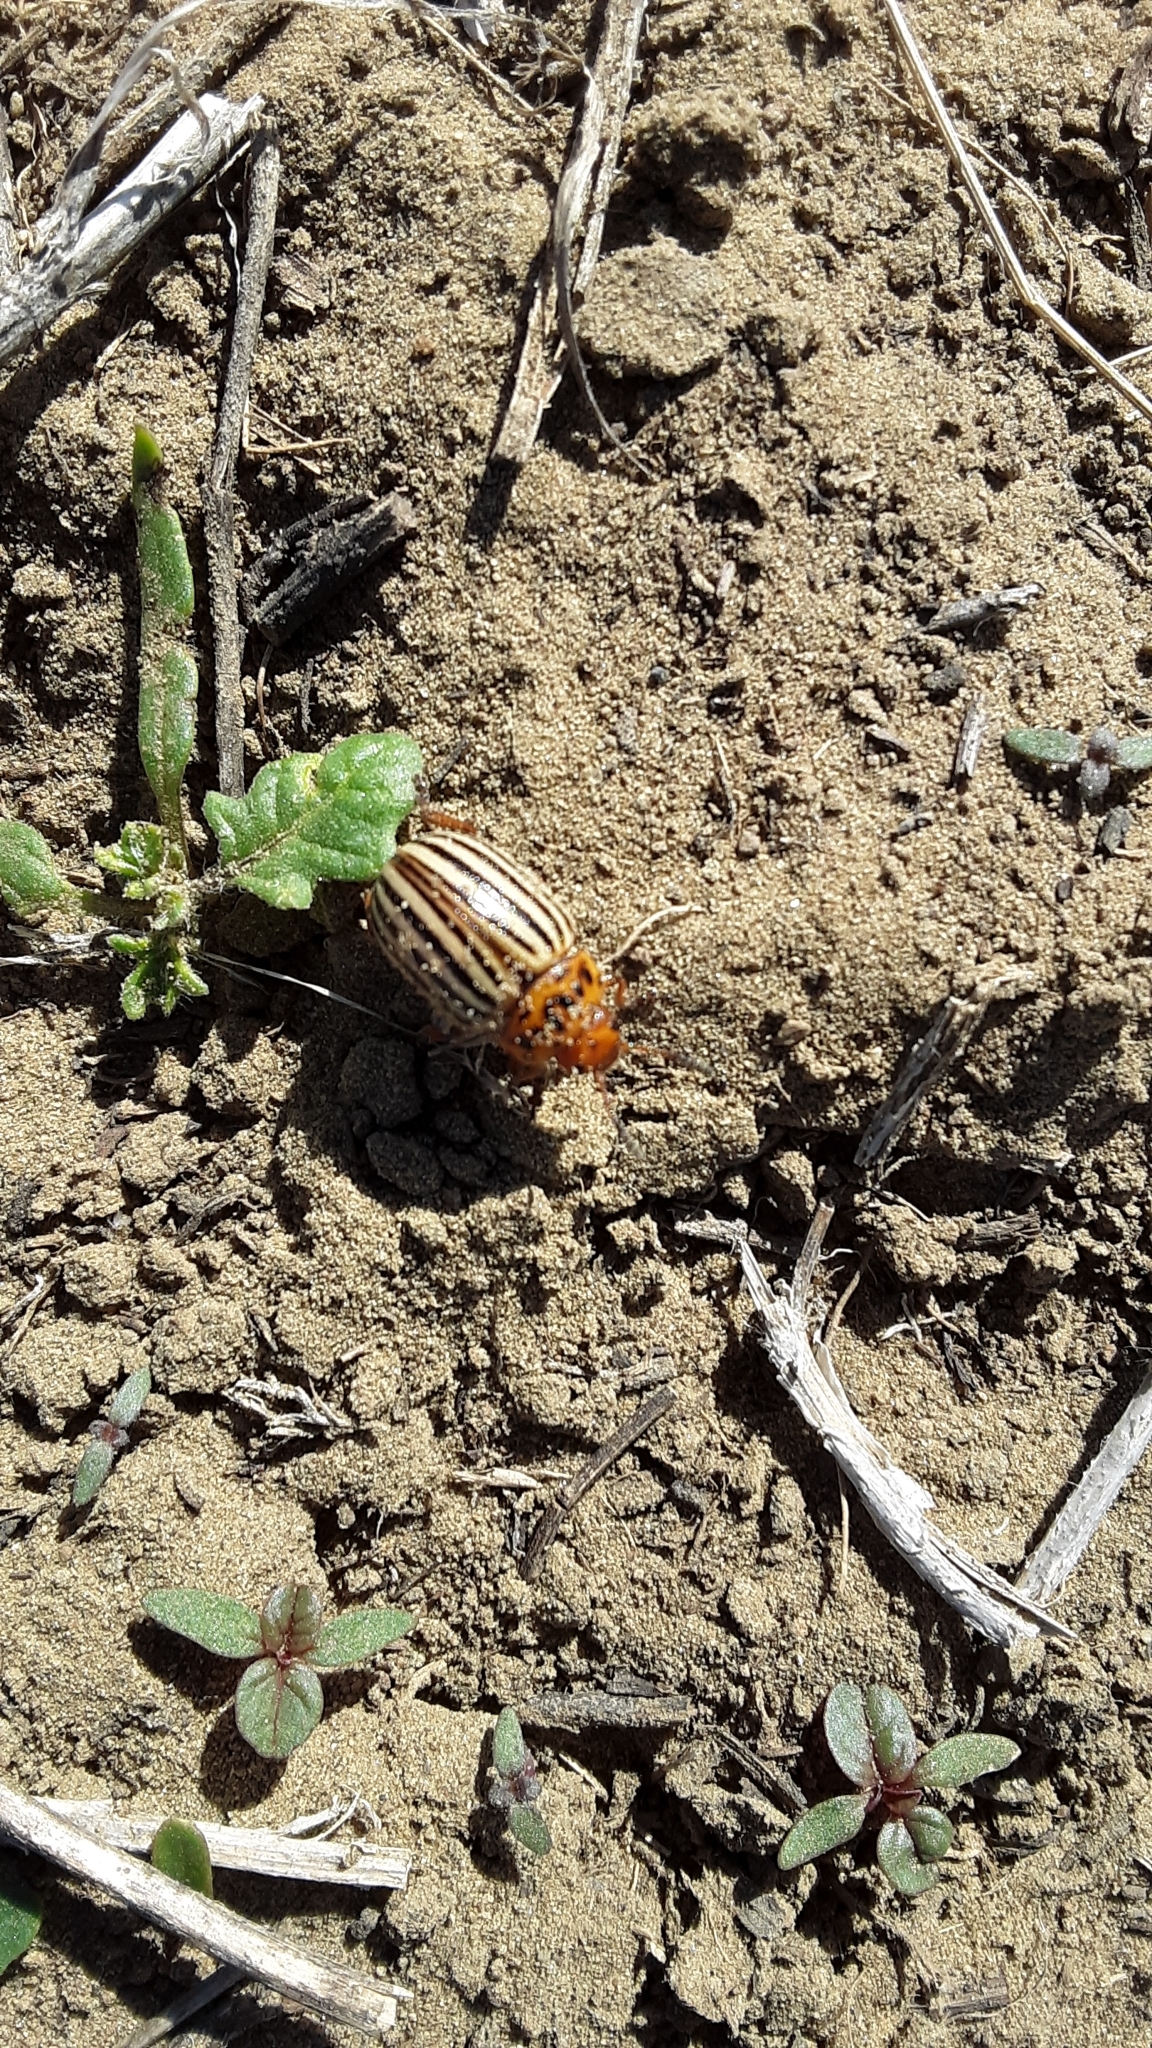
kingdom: Animalia
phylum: Arthropoda
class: Insecta
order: Coleoptera
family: Chrysomelidae
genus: Leptinotarsa
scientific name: Leptinotarsa decemlineata
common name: Colorado potato beetle
